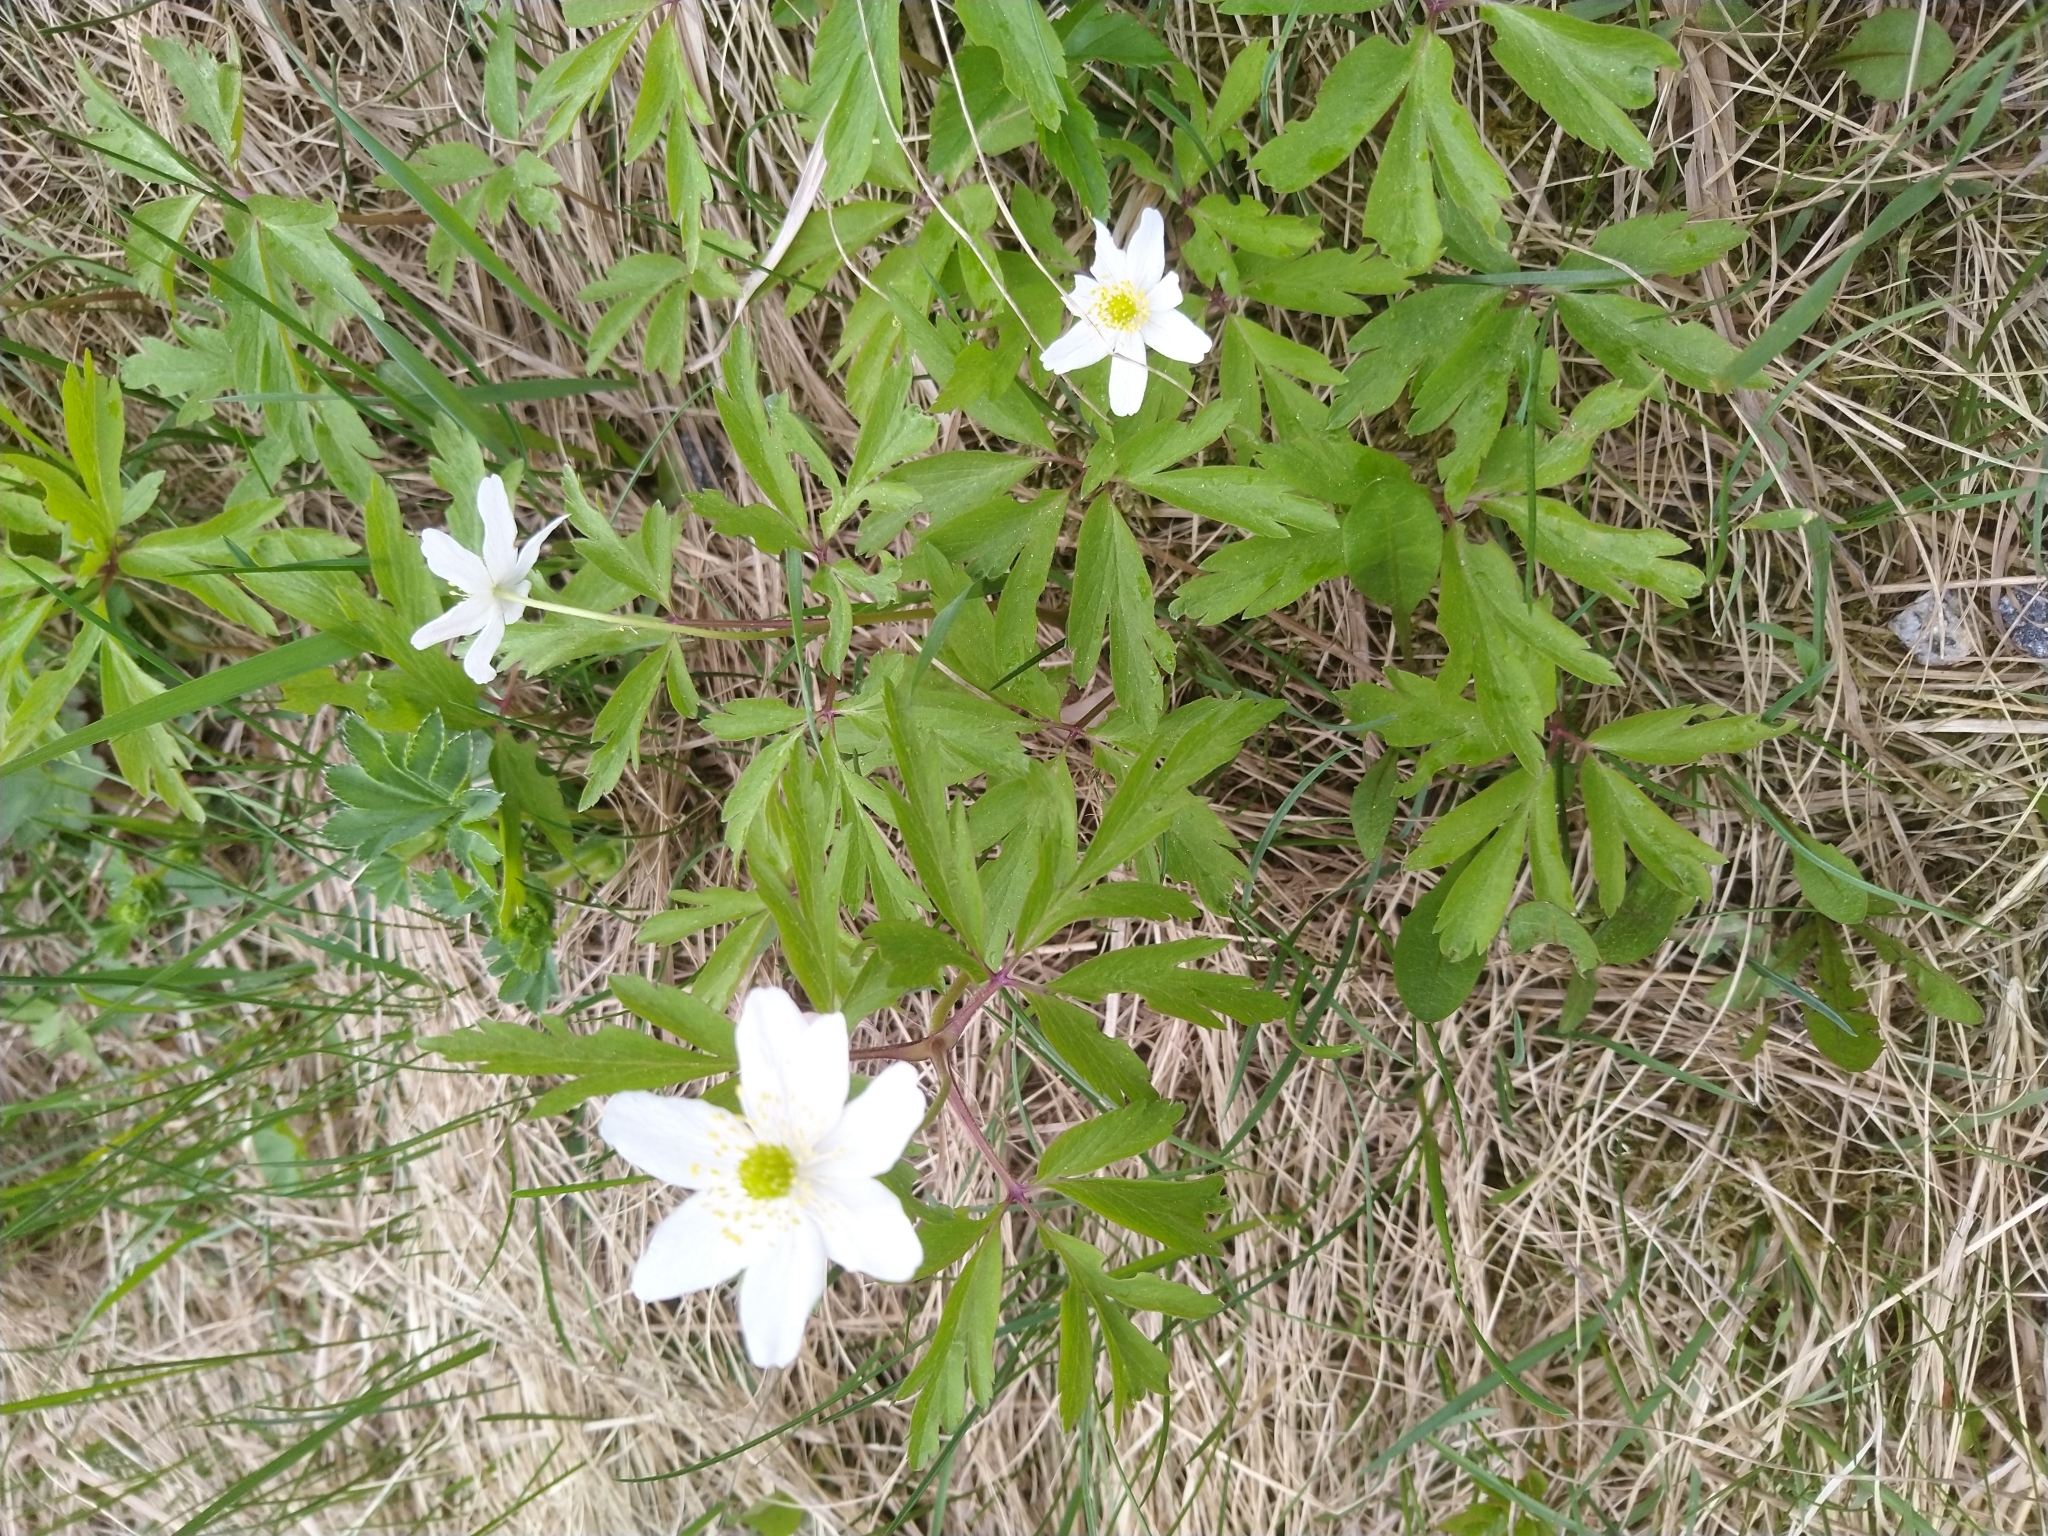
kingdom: Plantae
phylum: Tracheophyta
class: Magnoliopsida
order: Ranunculales
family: Ranunculaceae
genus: Anemone
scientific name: Anemone nemorosa
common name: Wood anemone
